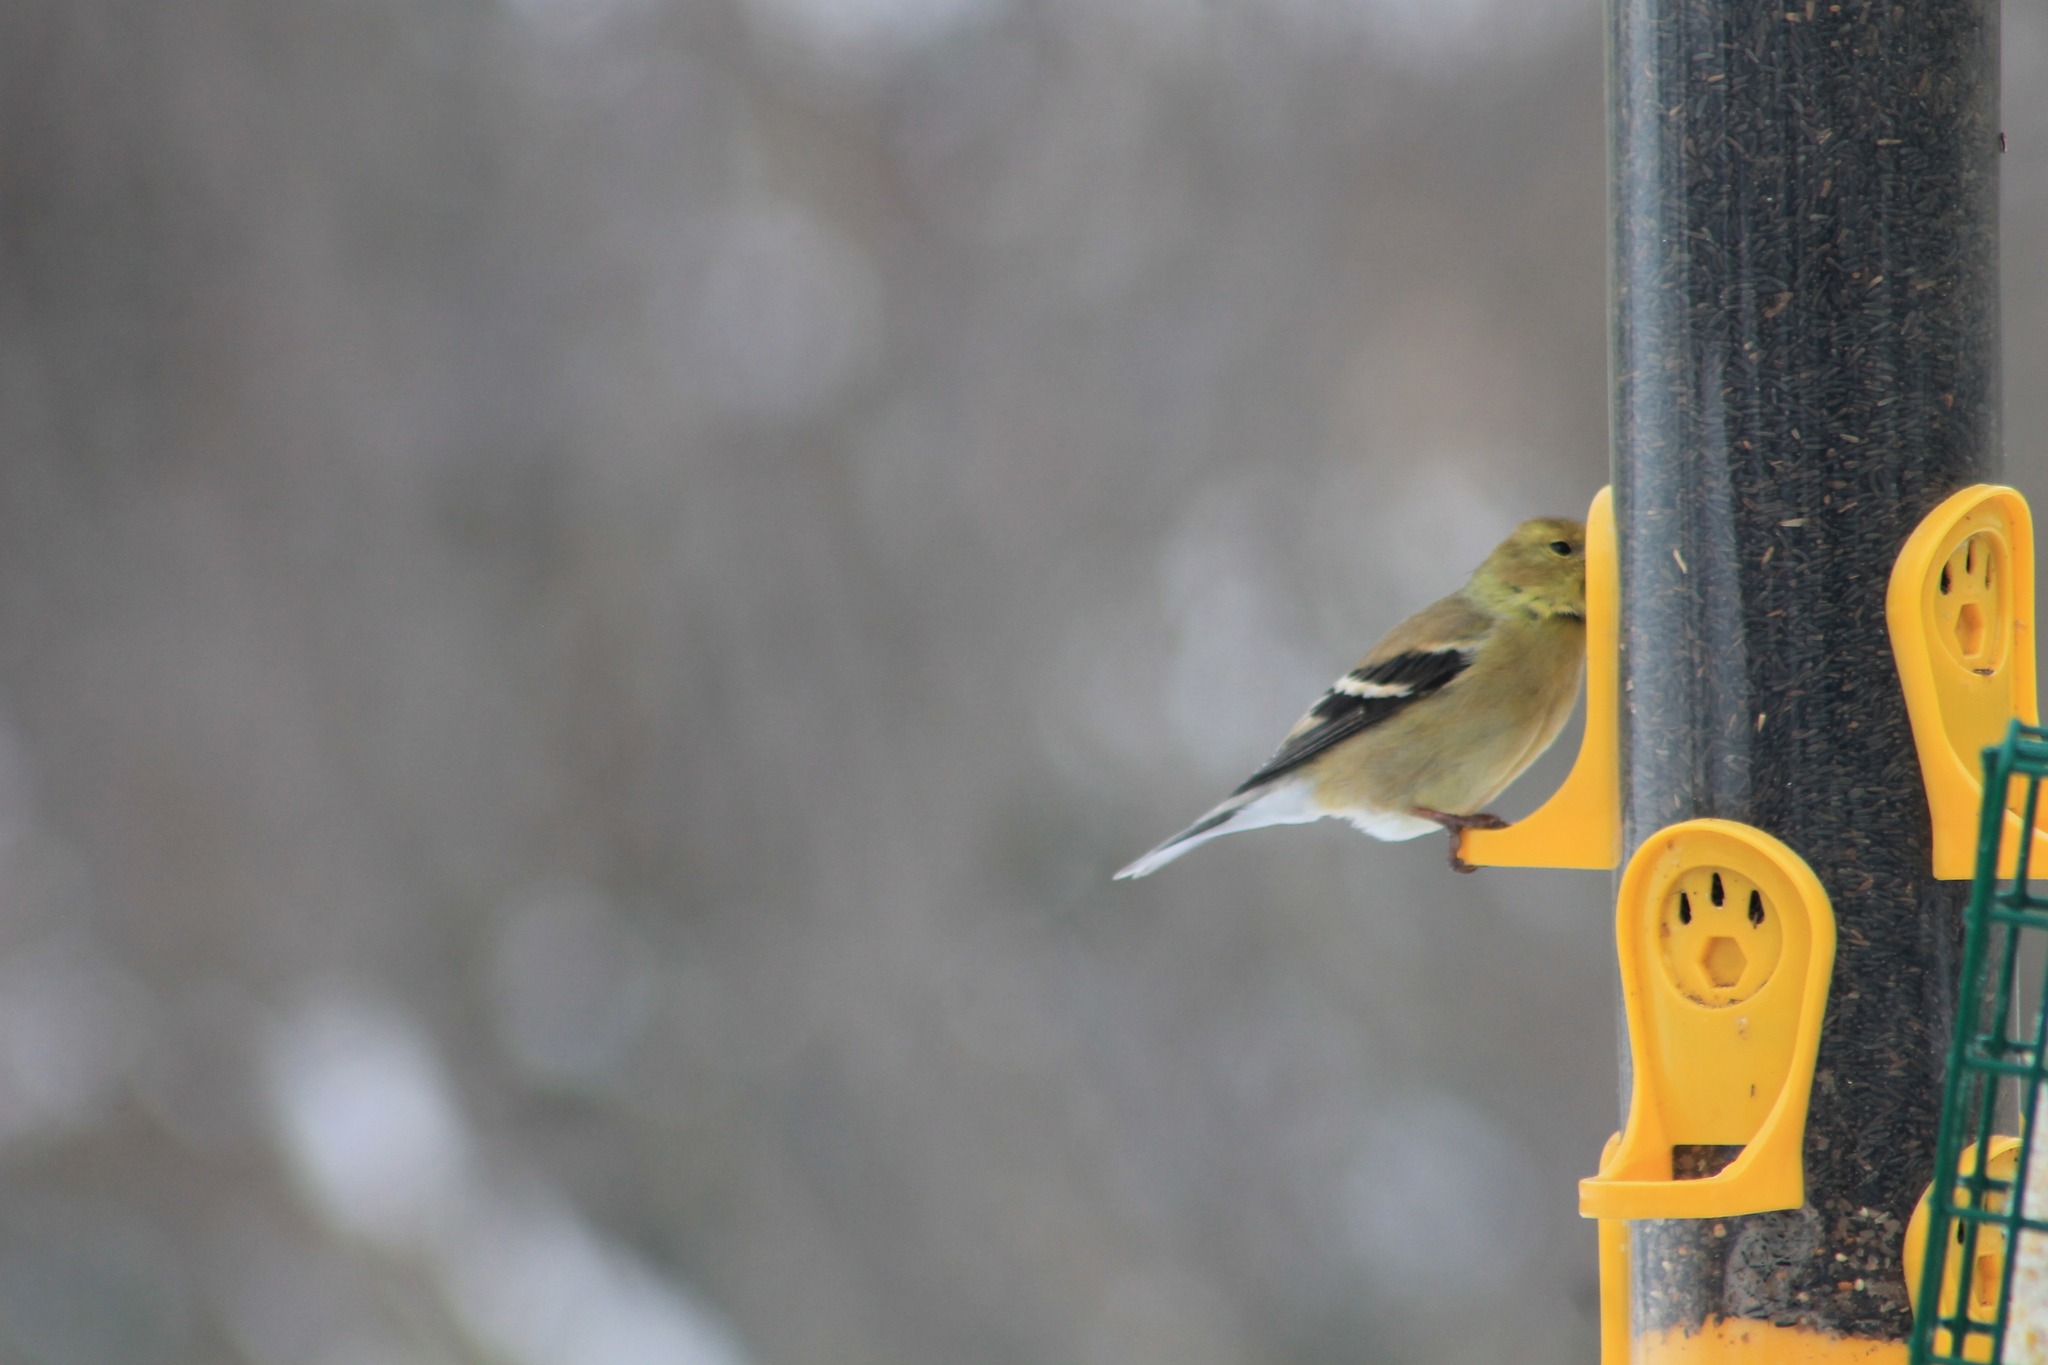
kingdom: Animalia
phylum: Chordata
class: Aves
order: Passeriformes
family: Fringillidae
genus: Spinus
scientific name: Spinus tristis
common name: American goldfinch
